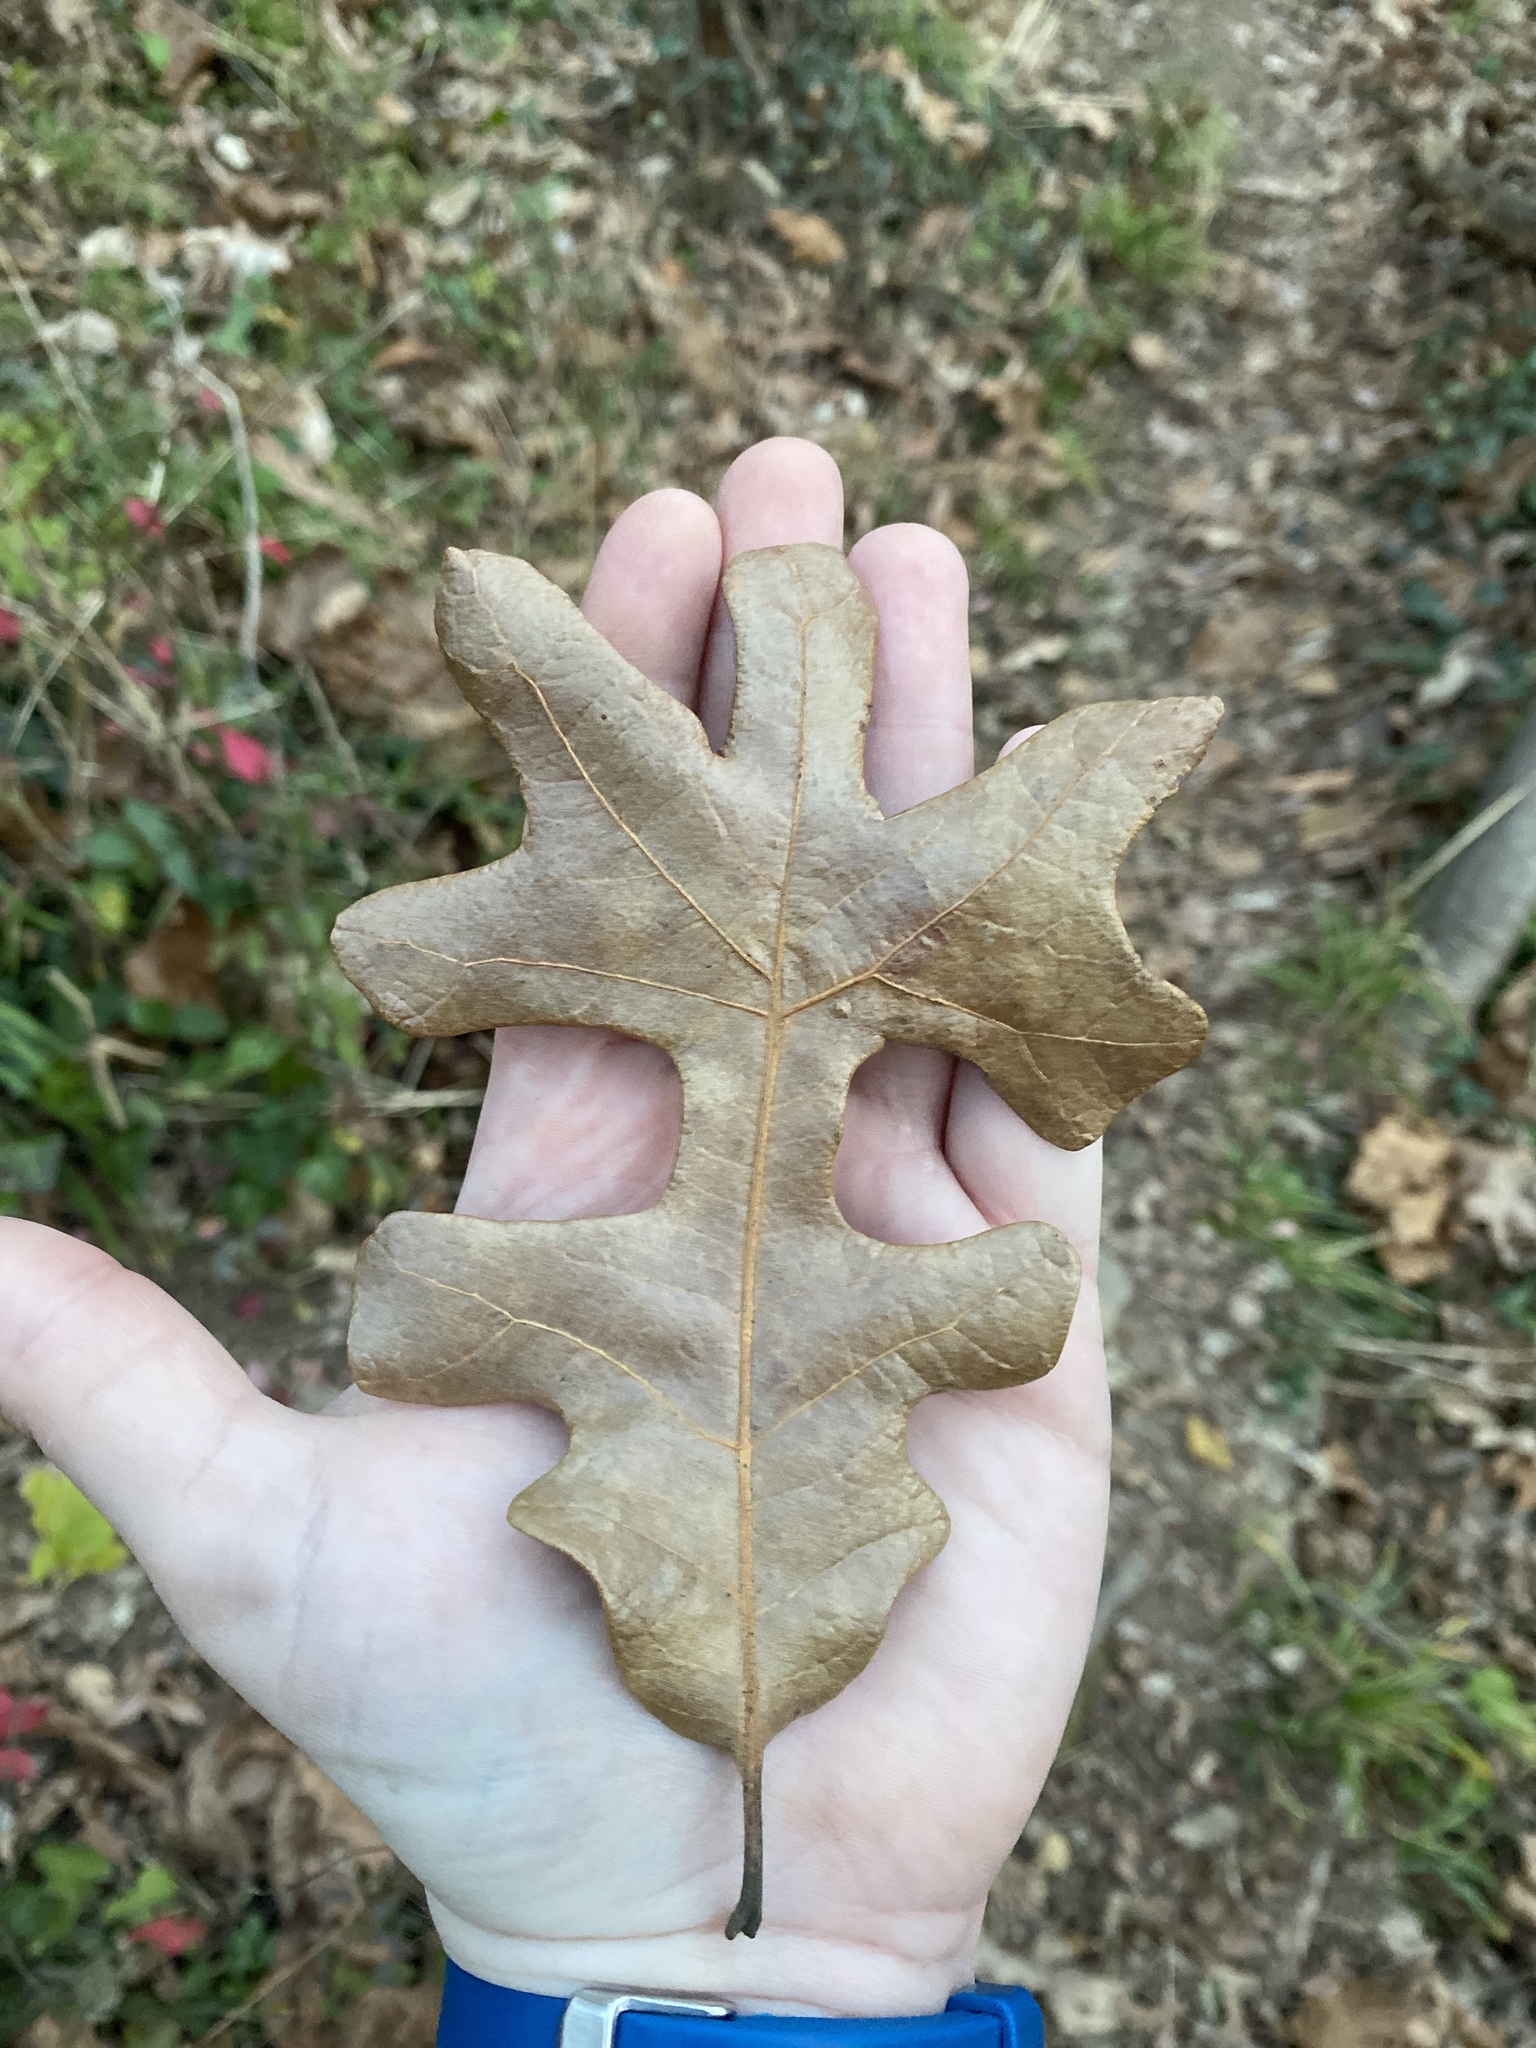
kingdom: Plantae
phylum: Tracheophyta
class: Magnoliopsida
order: Fagales
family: Fagaceae
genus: Quercus
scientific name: Quercus stellata
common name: Post oak
